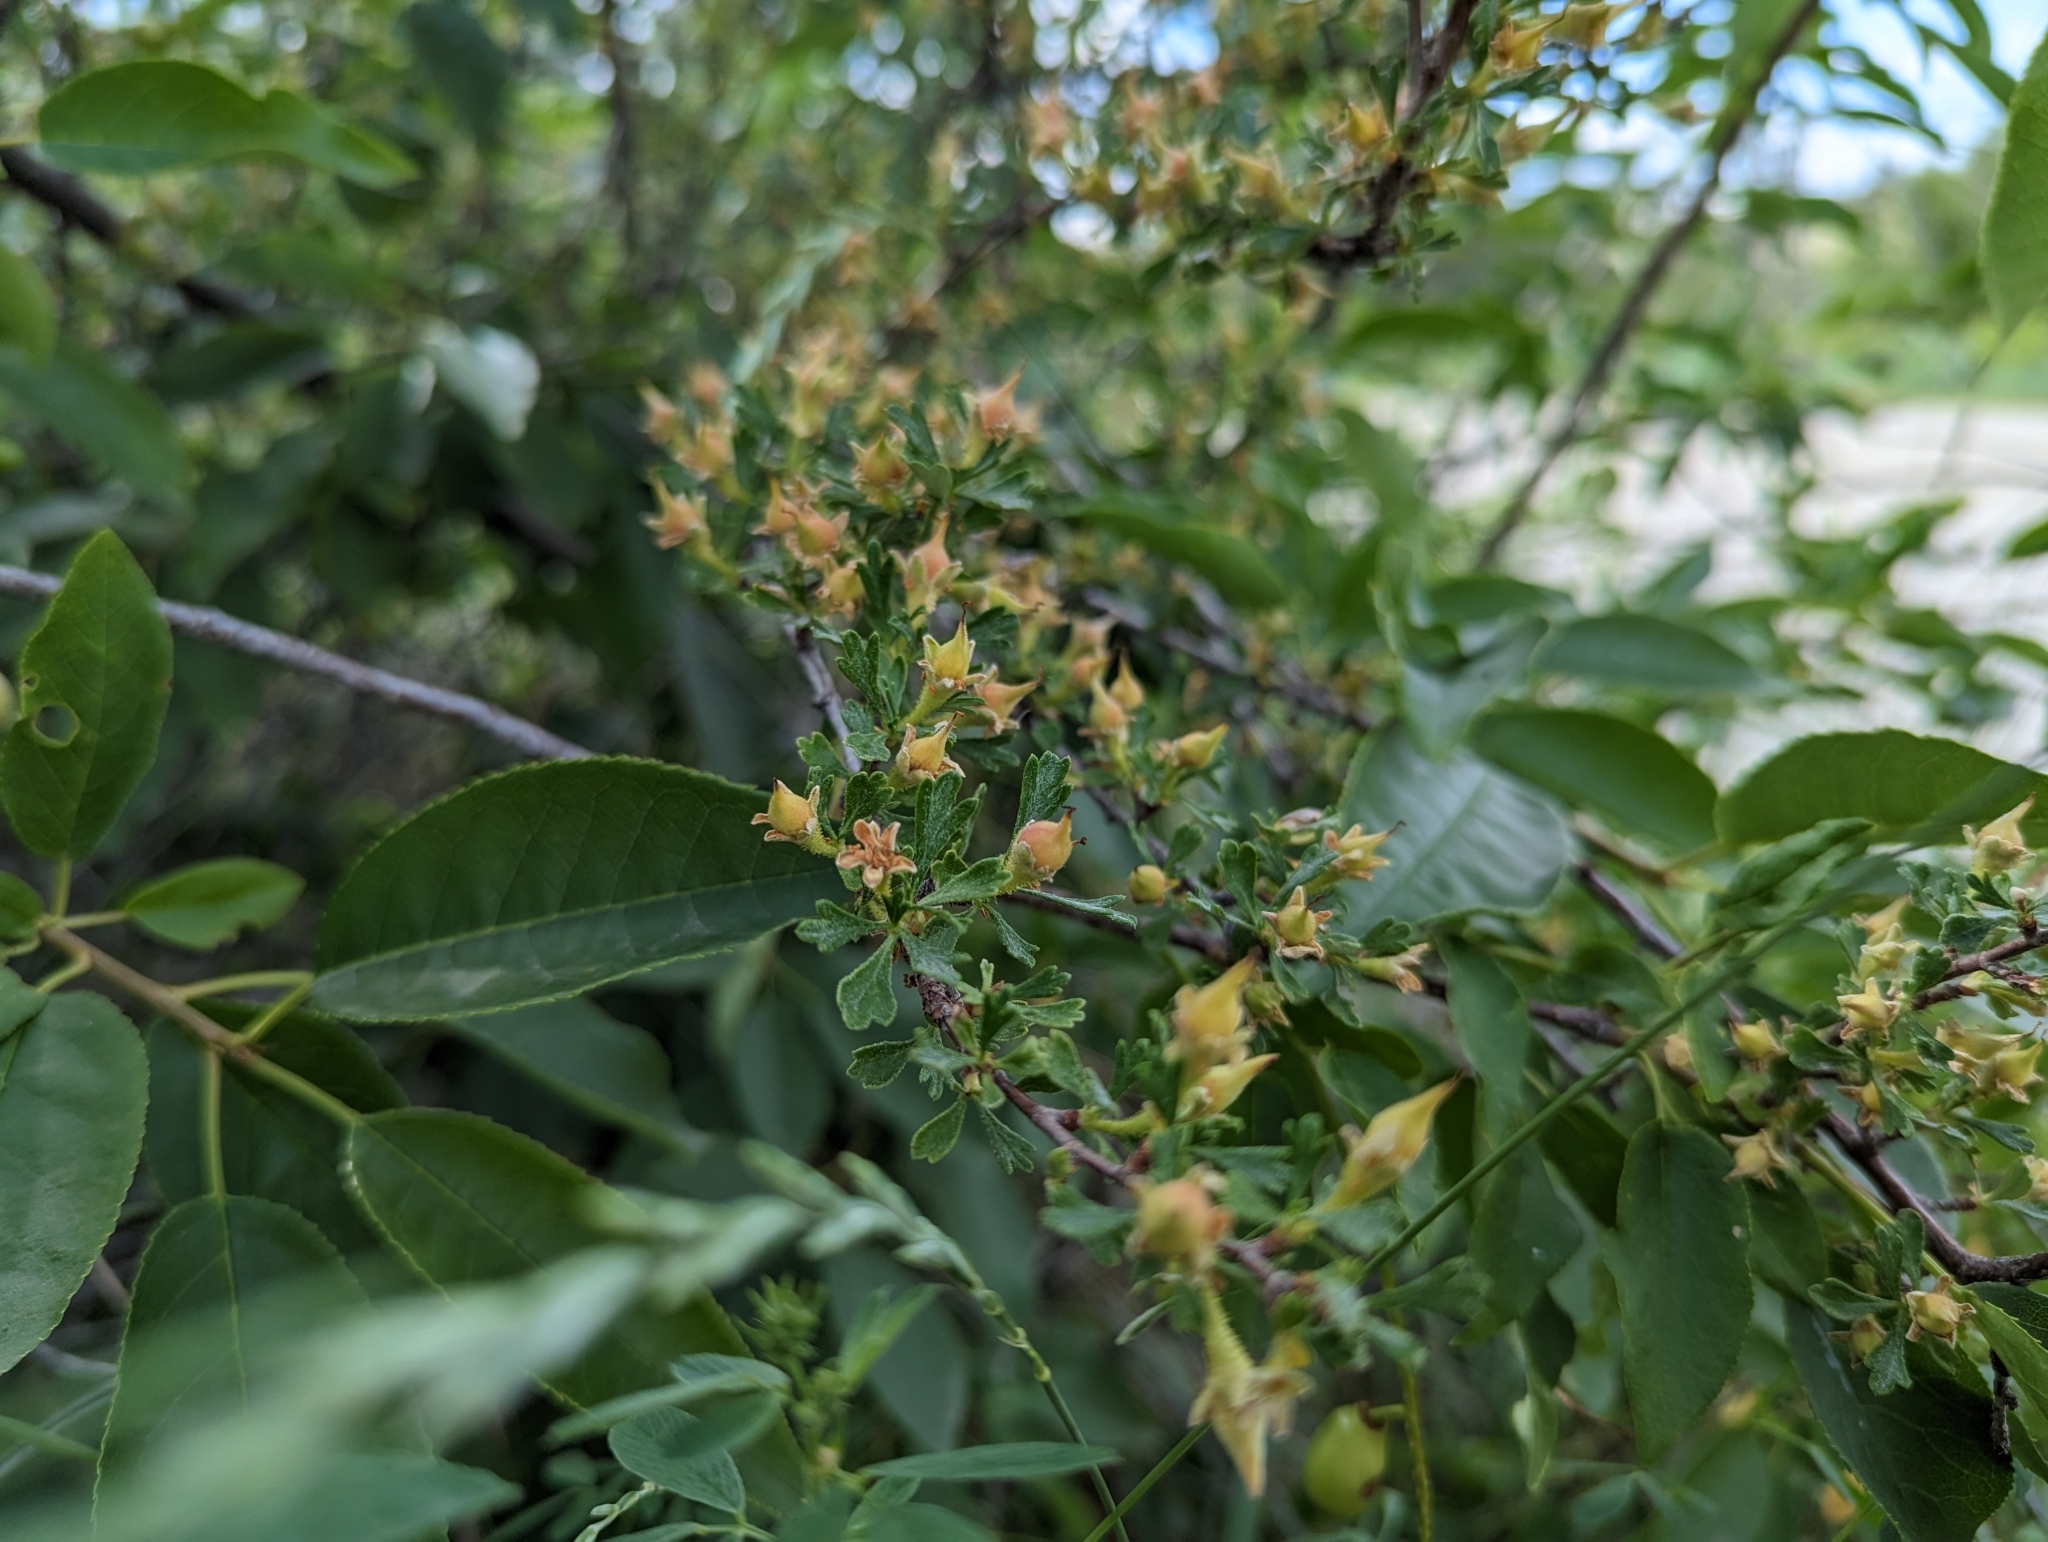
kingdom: Plantae
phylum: Tracheophyta
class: Magnoliopsida
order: Rosales
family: Rosaceae
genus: Purshia
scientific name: Purshia tridentata
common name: Antelope bitterbrush
